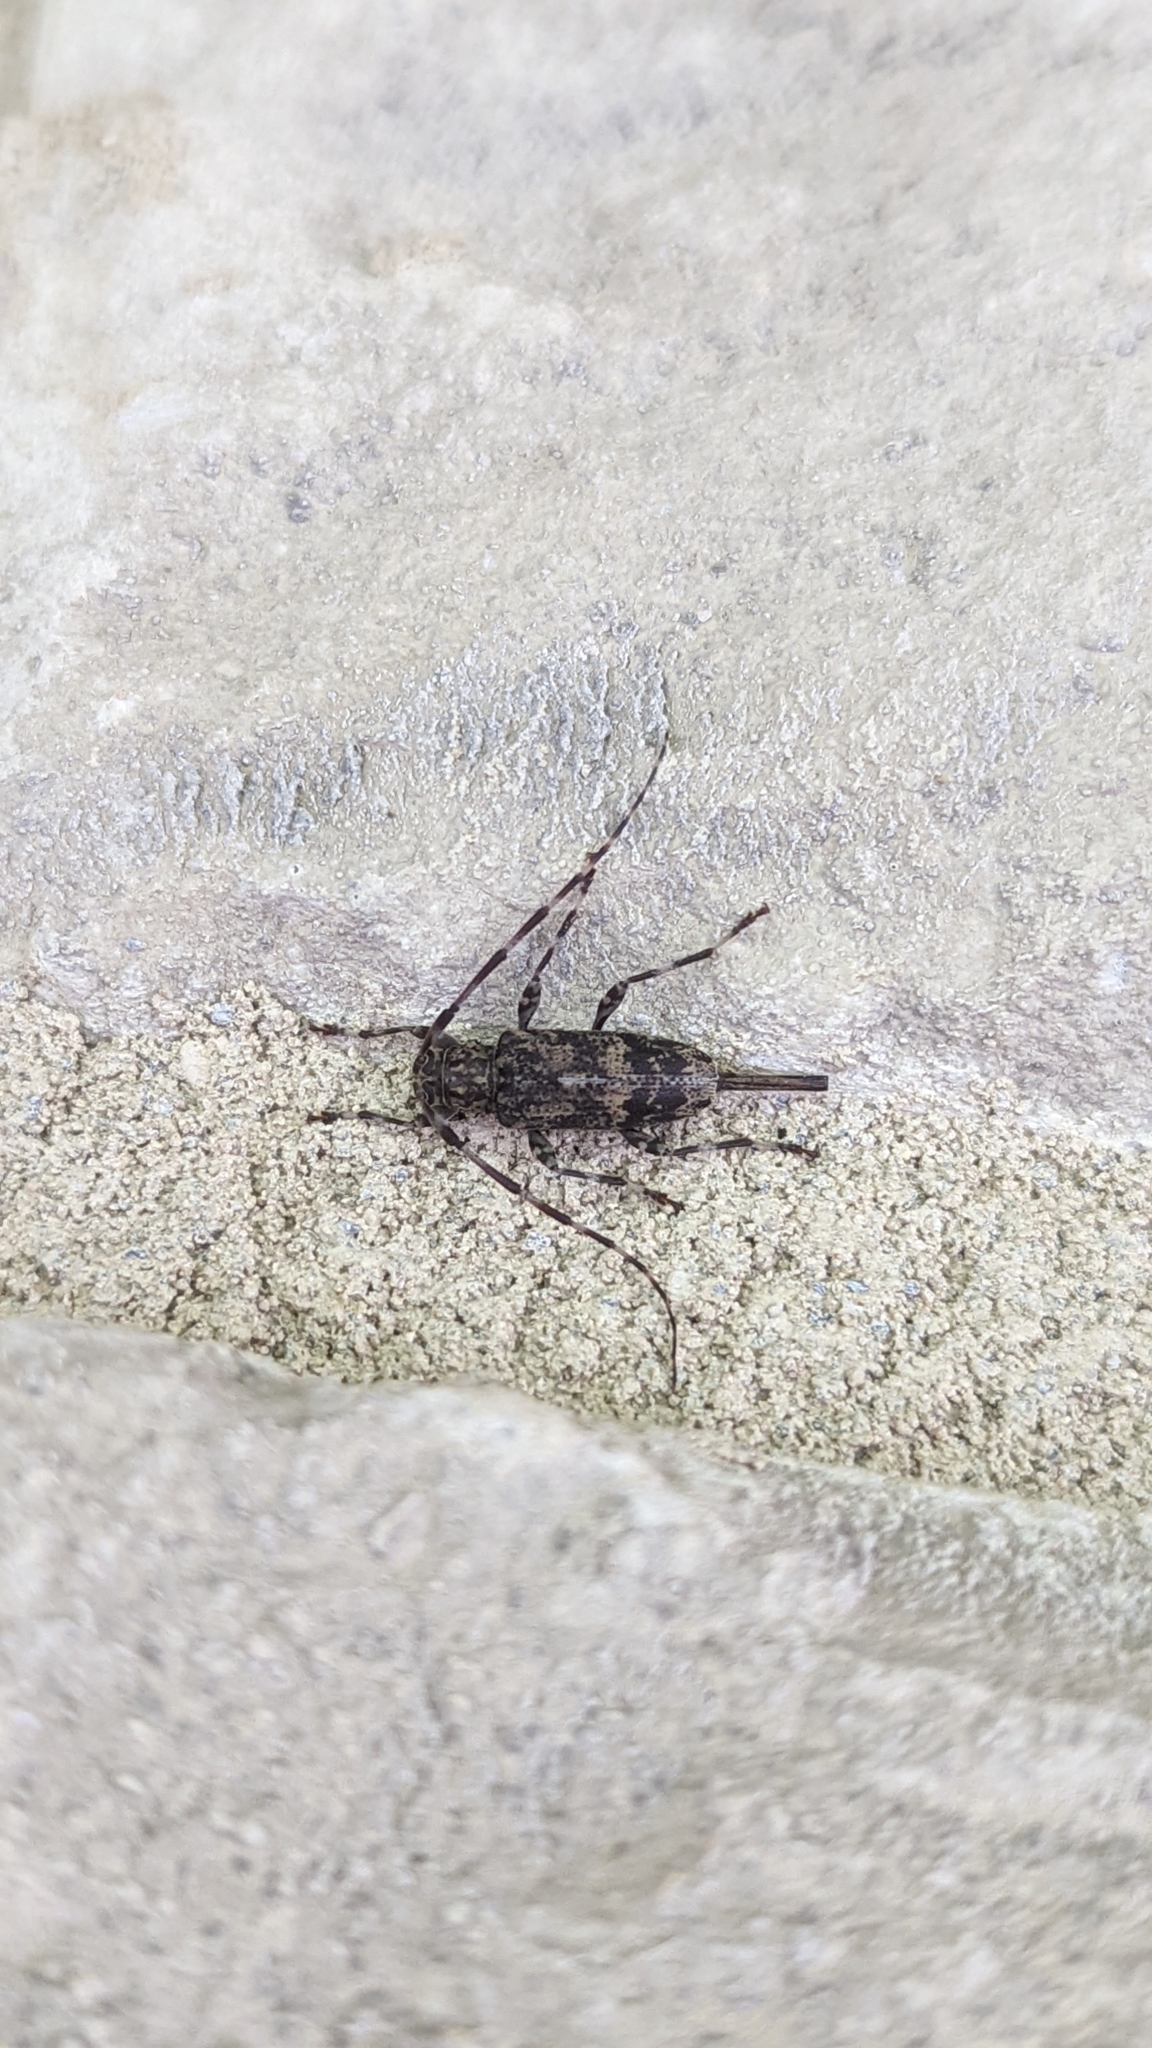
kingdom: Animalia
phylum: Arthropoda
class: Insecta
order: Coleoptera
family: Cerambycidae
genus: Graphisurus
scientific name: Graphisurus fasciatus
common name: Banded graphisurus
